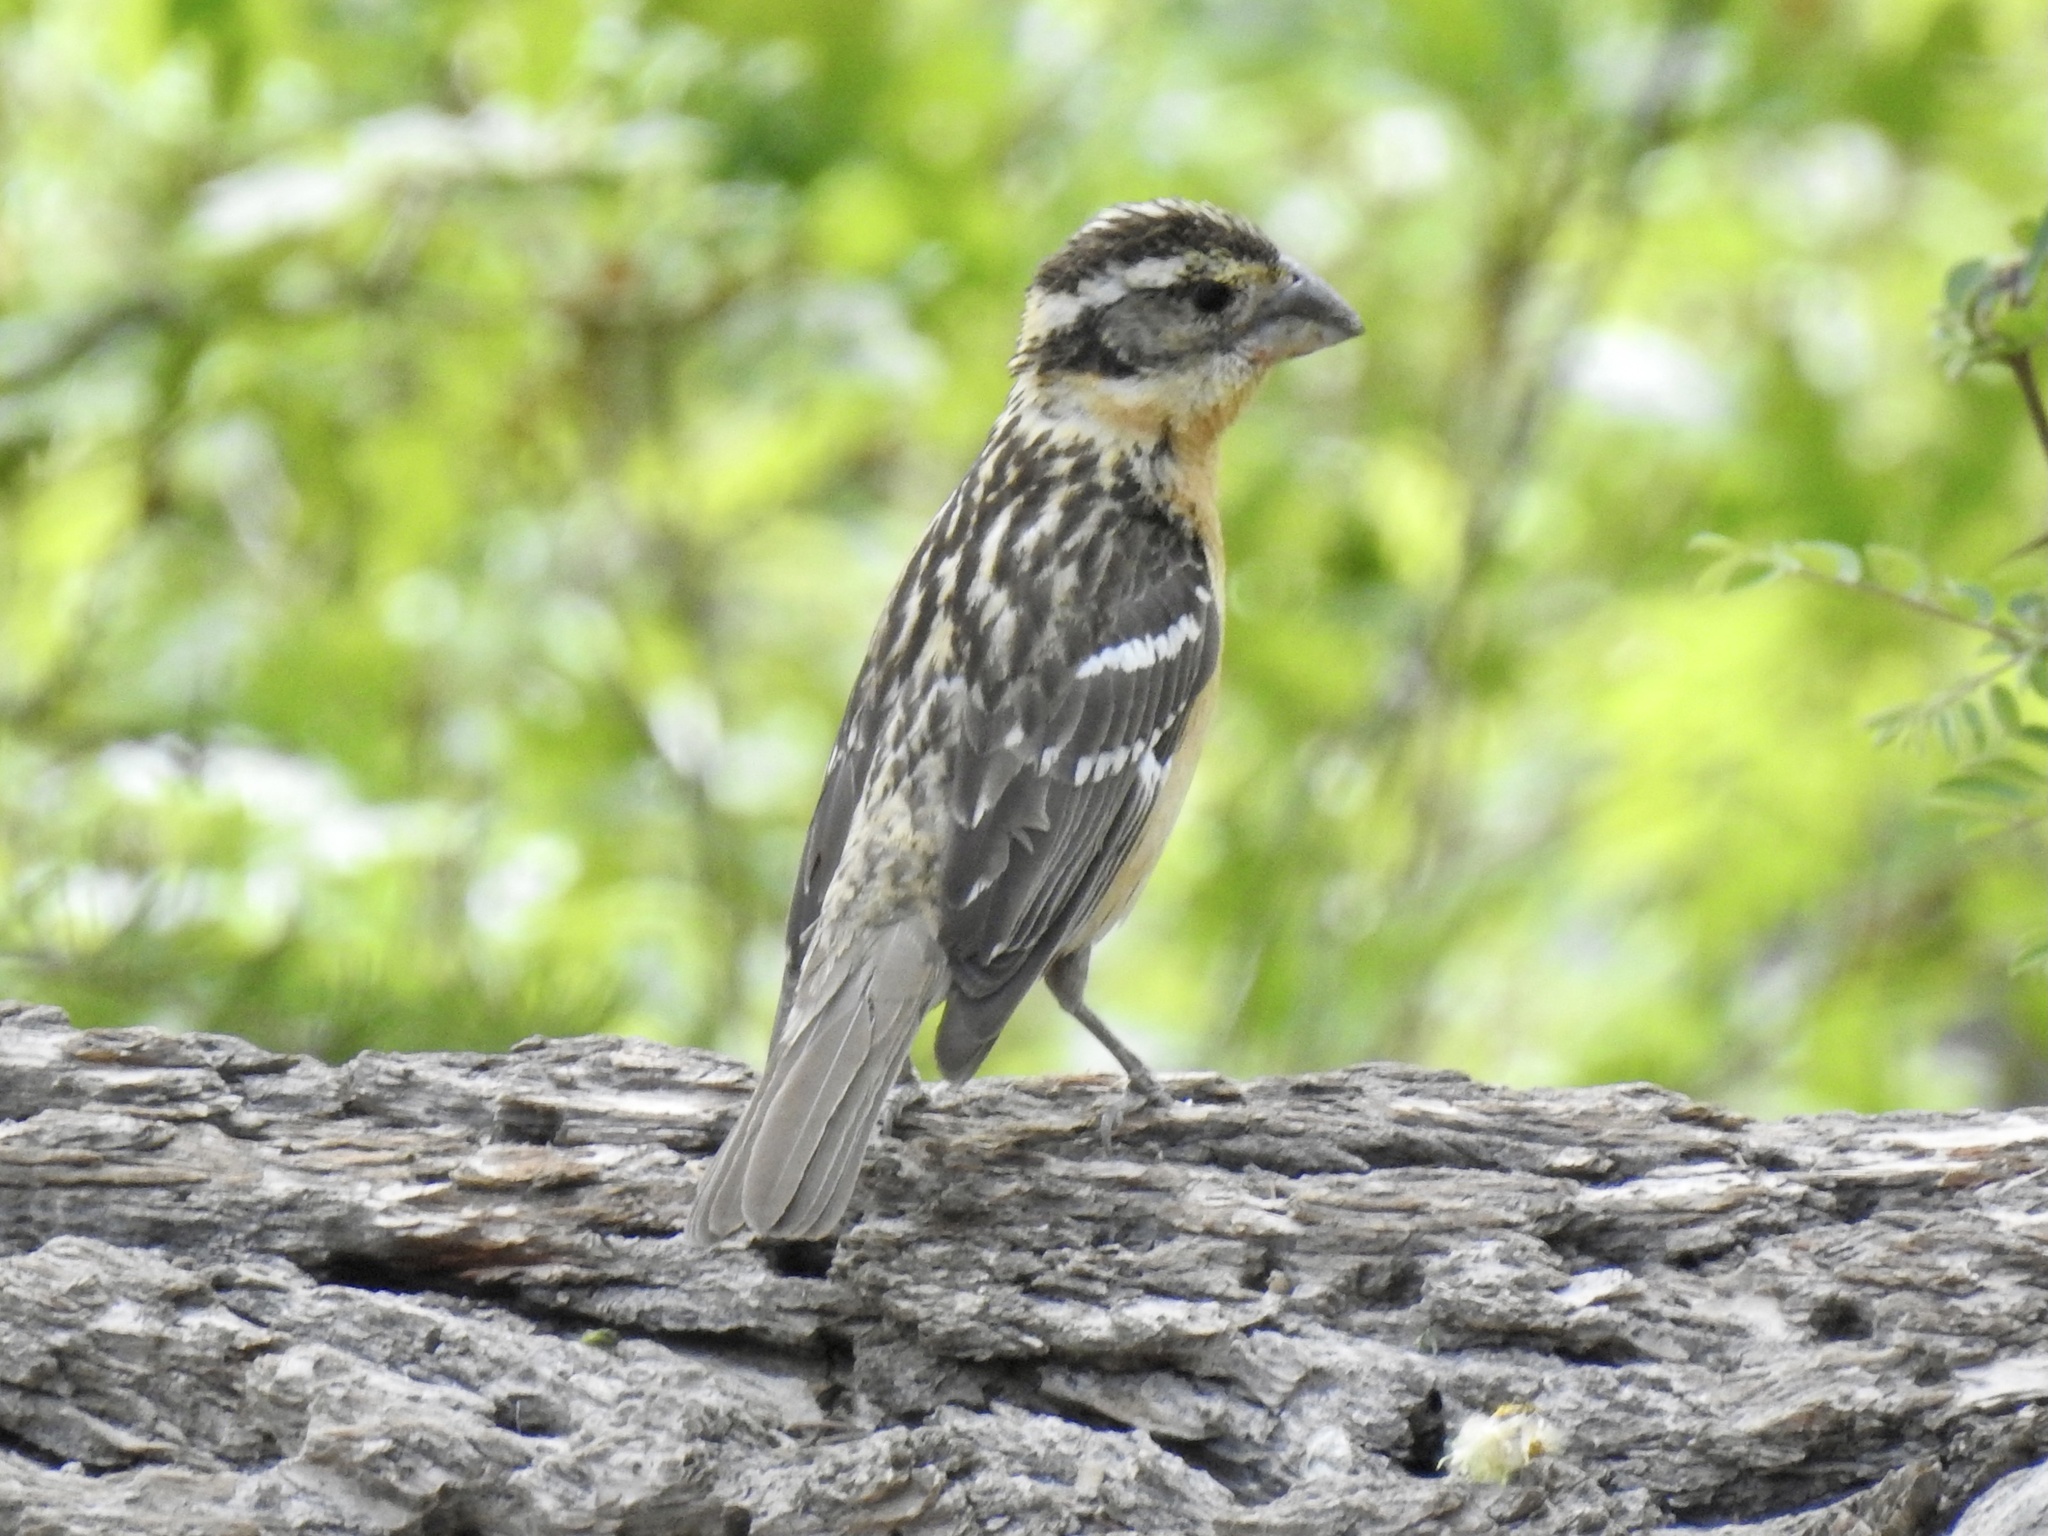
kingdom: Animalia
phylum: Chordata
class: Aves
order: Passeriformes
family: Cardinalidae
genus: Pheucticus
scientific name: Pheucticus melanocephalus
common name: Black-headed grosbeak
